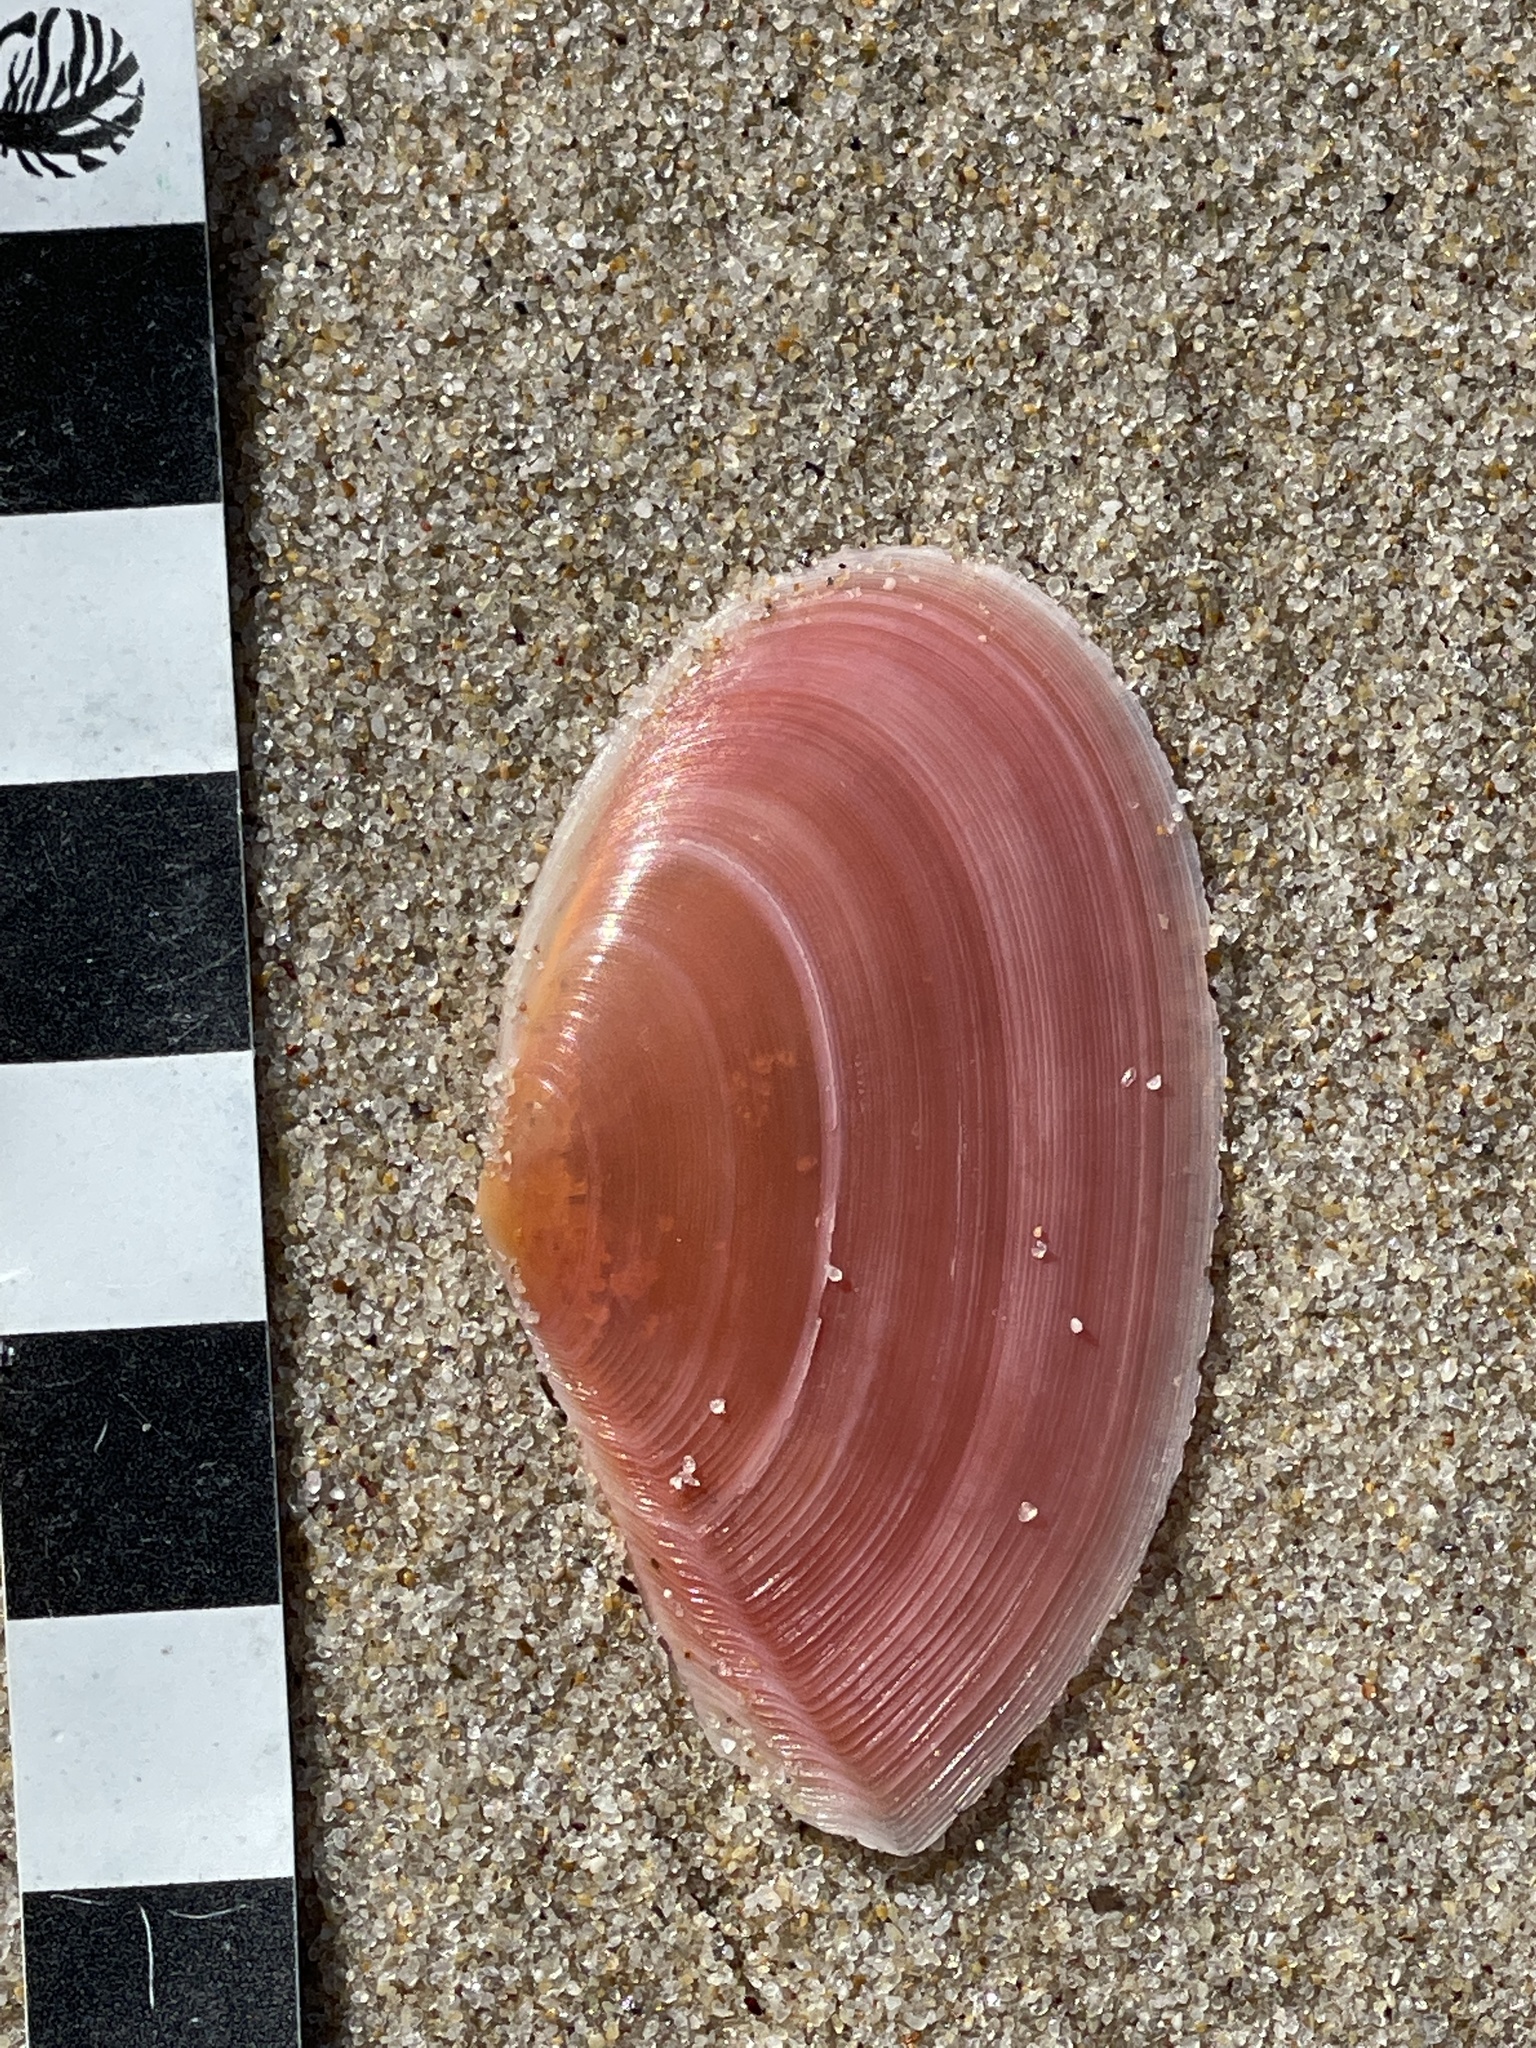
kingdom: Animalia
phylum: Mollusca
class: Bivalvia
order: Cardiida
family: Tellinidae
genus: Tellinota
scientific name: Tellinota albinella
